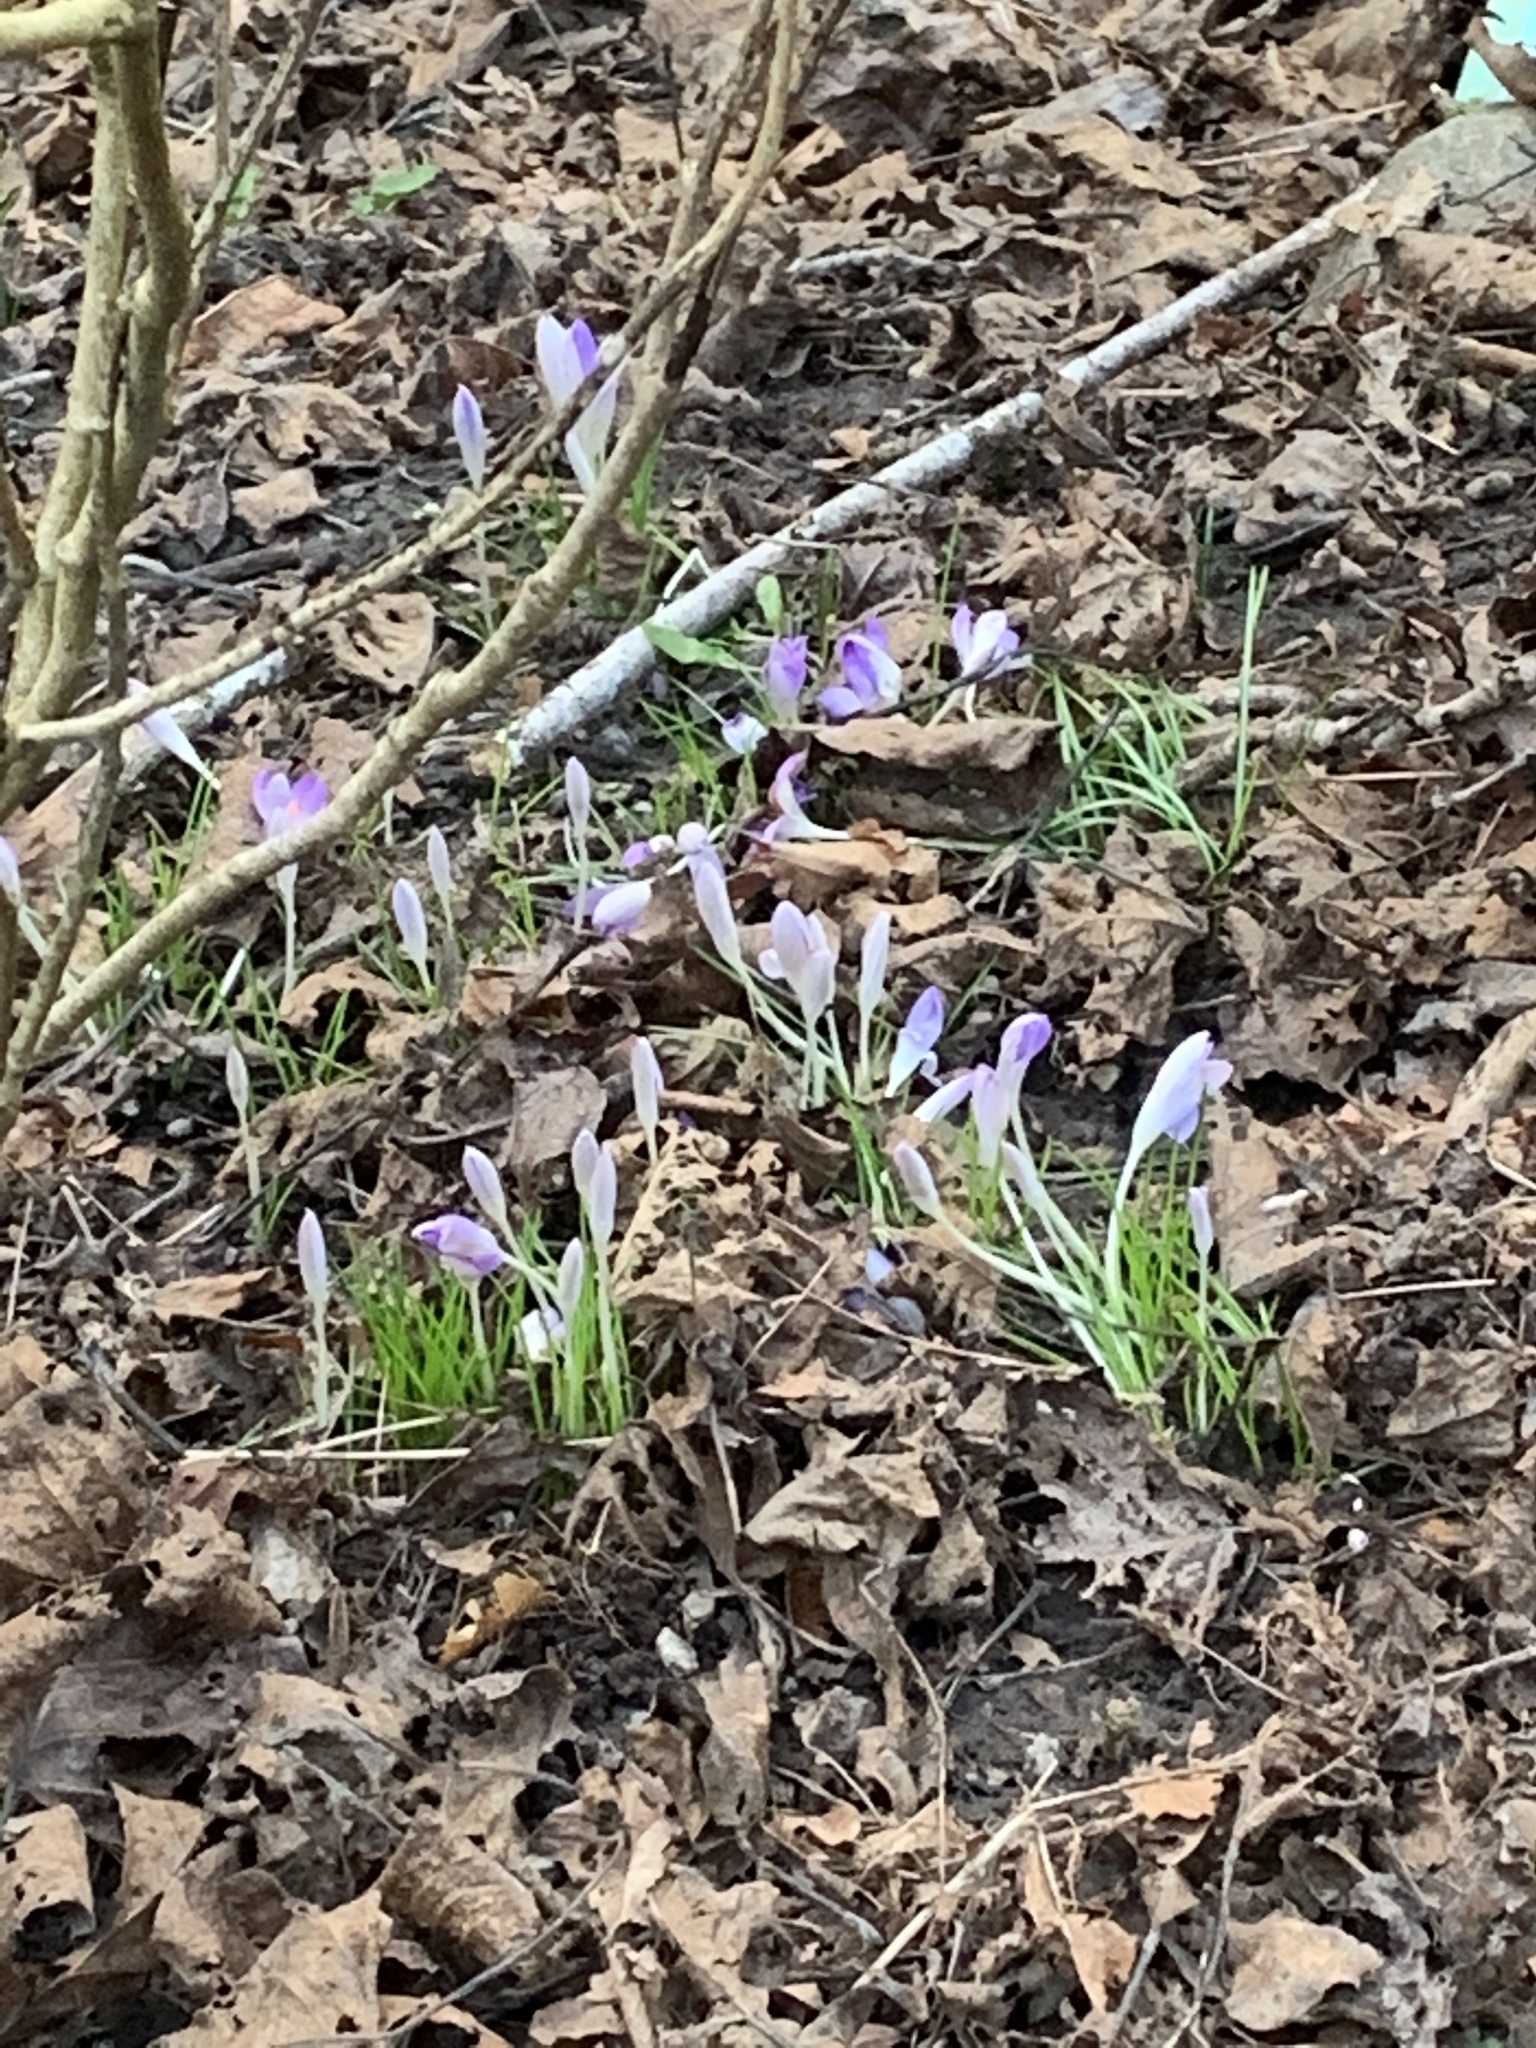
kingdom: Plantae
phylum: Tracheophyta
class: Liliopsida
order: Asparagales
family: Iridaceae
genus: Crocus
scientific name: Crocus tommasinianus
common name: Early crocus
